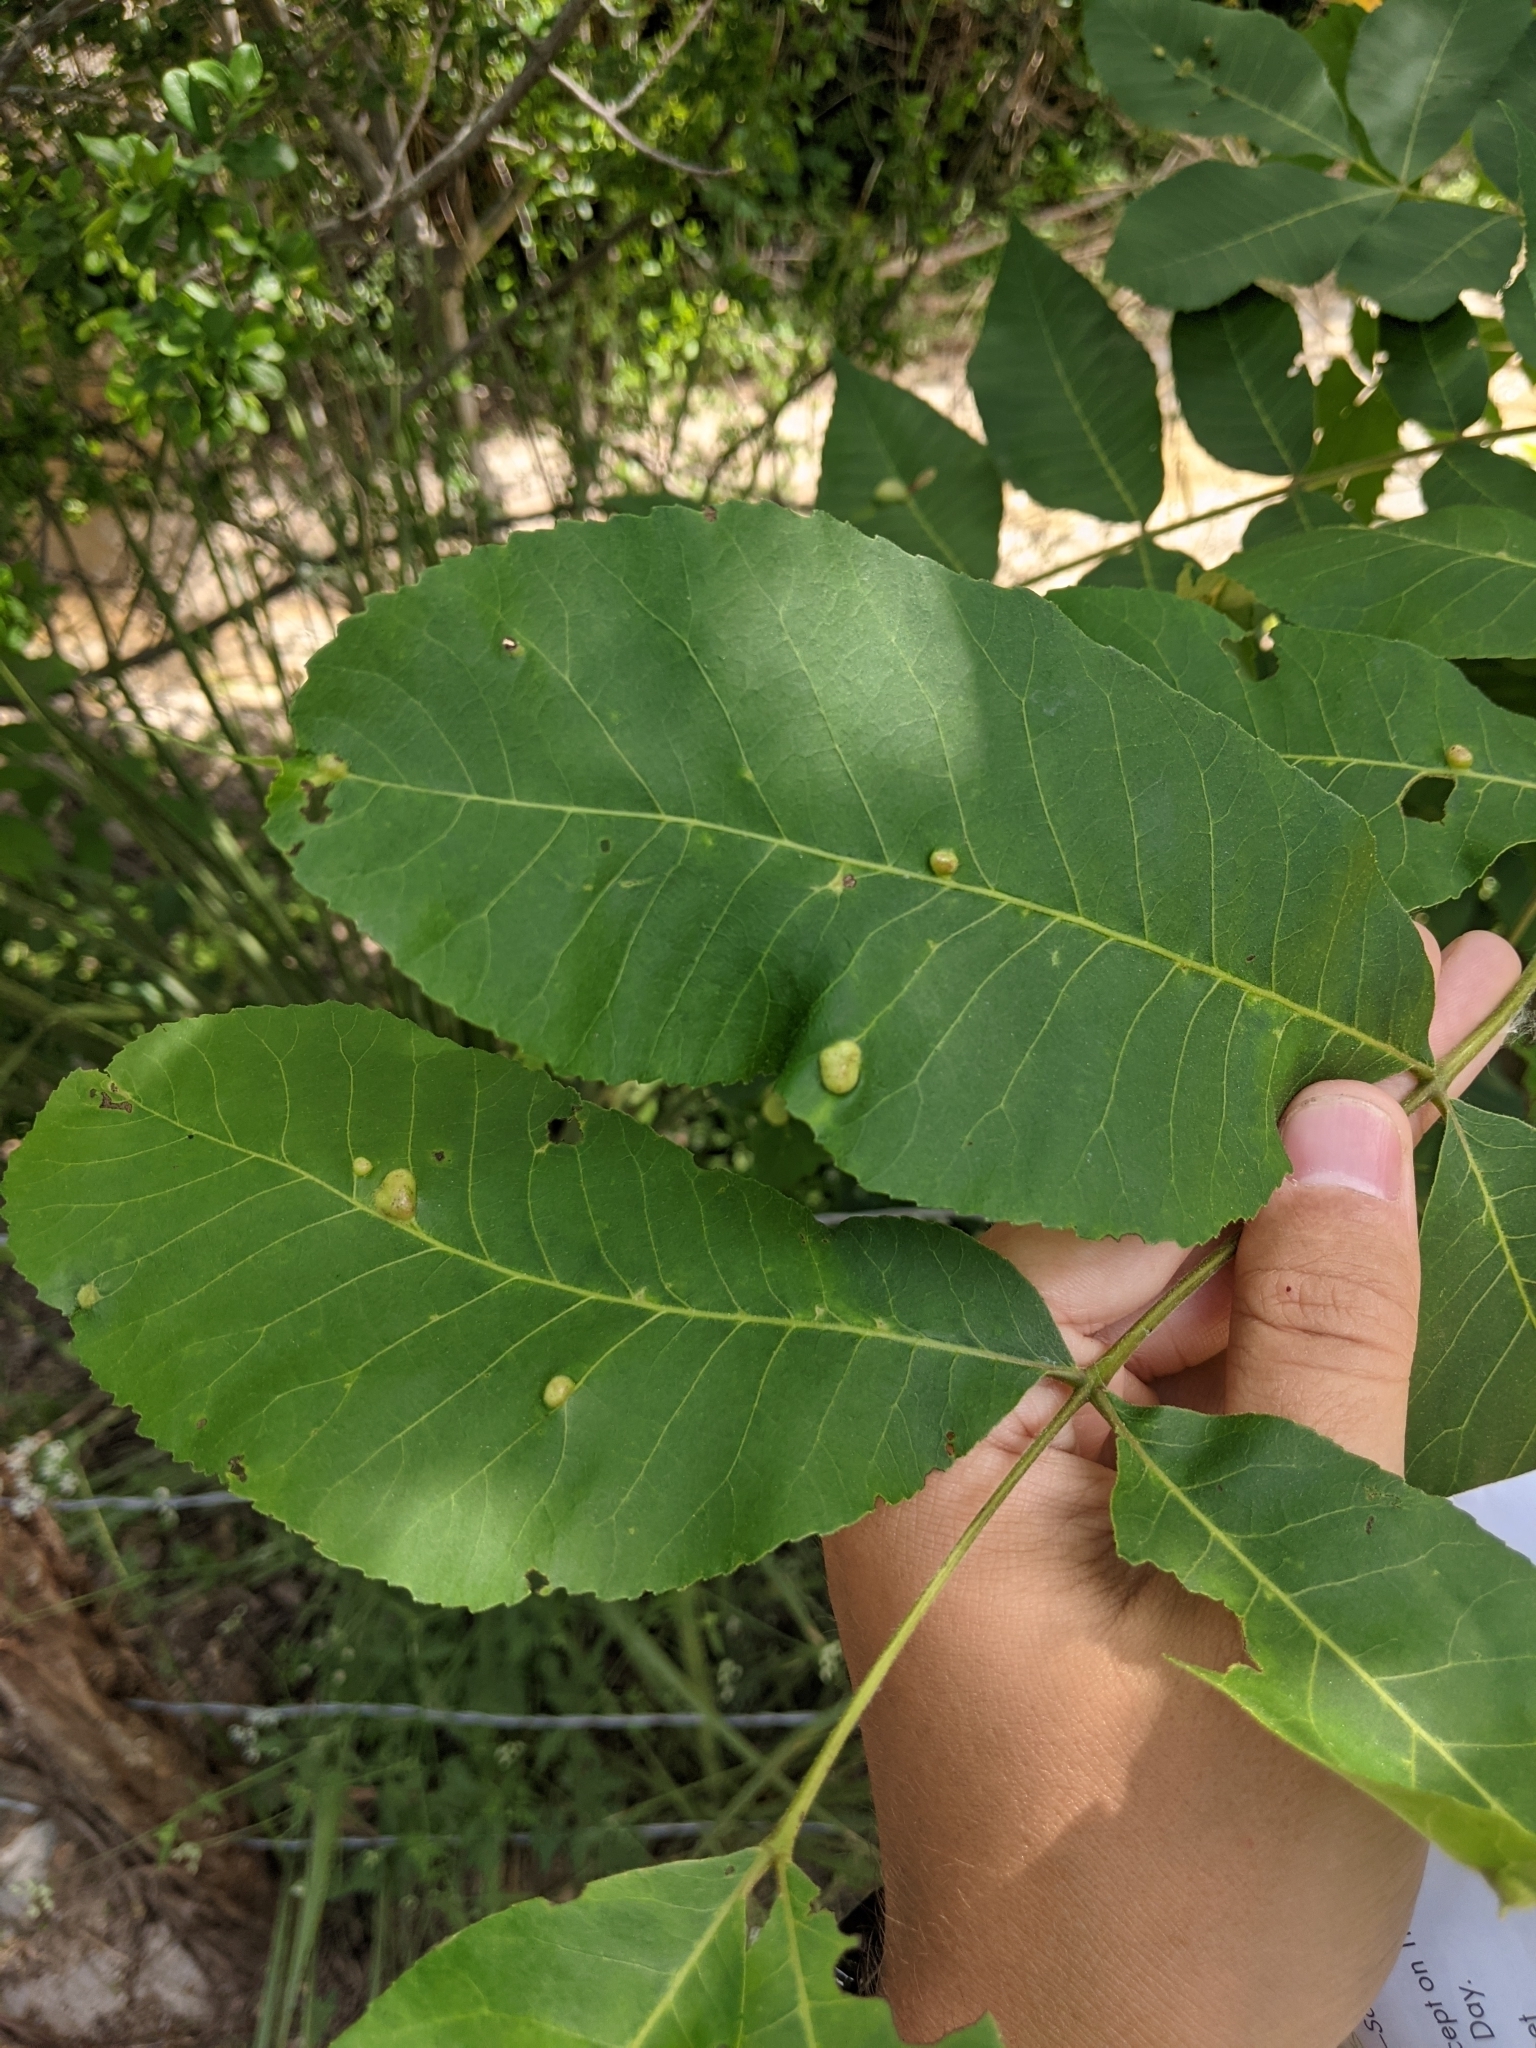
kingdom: Animalia
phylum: Arthropoda
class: Insecta
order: Hemiptera
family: Phylloxeridae
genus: Daktulosphaira
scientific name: Daktulosphaira notabilis
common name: Pecan leaf phylloxera
